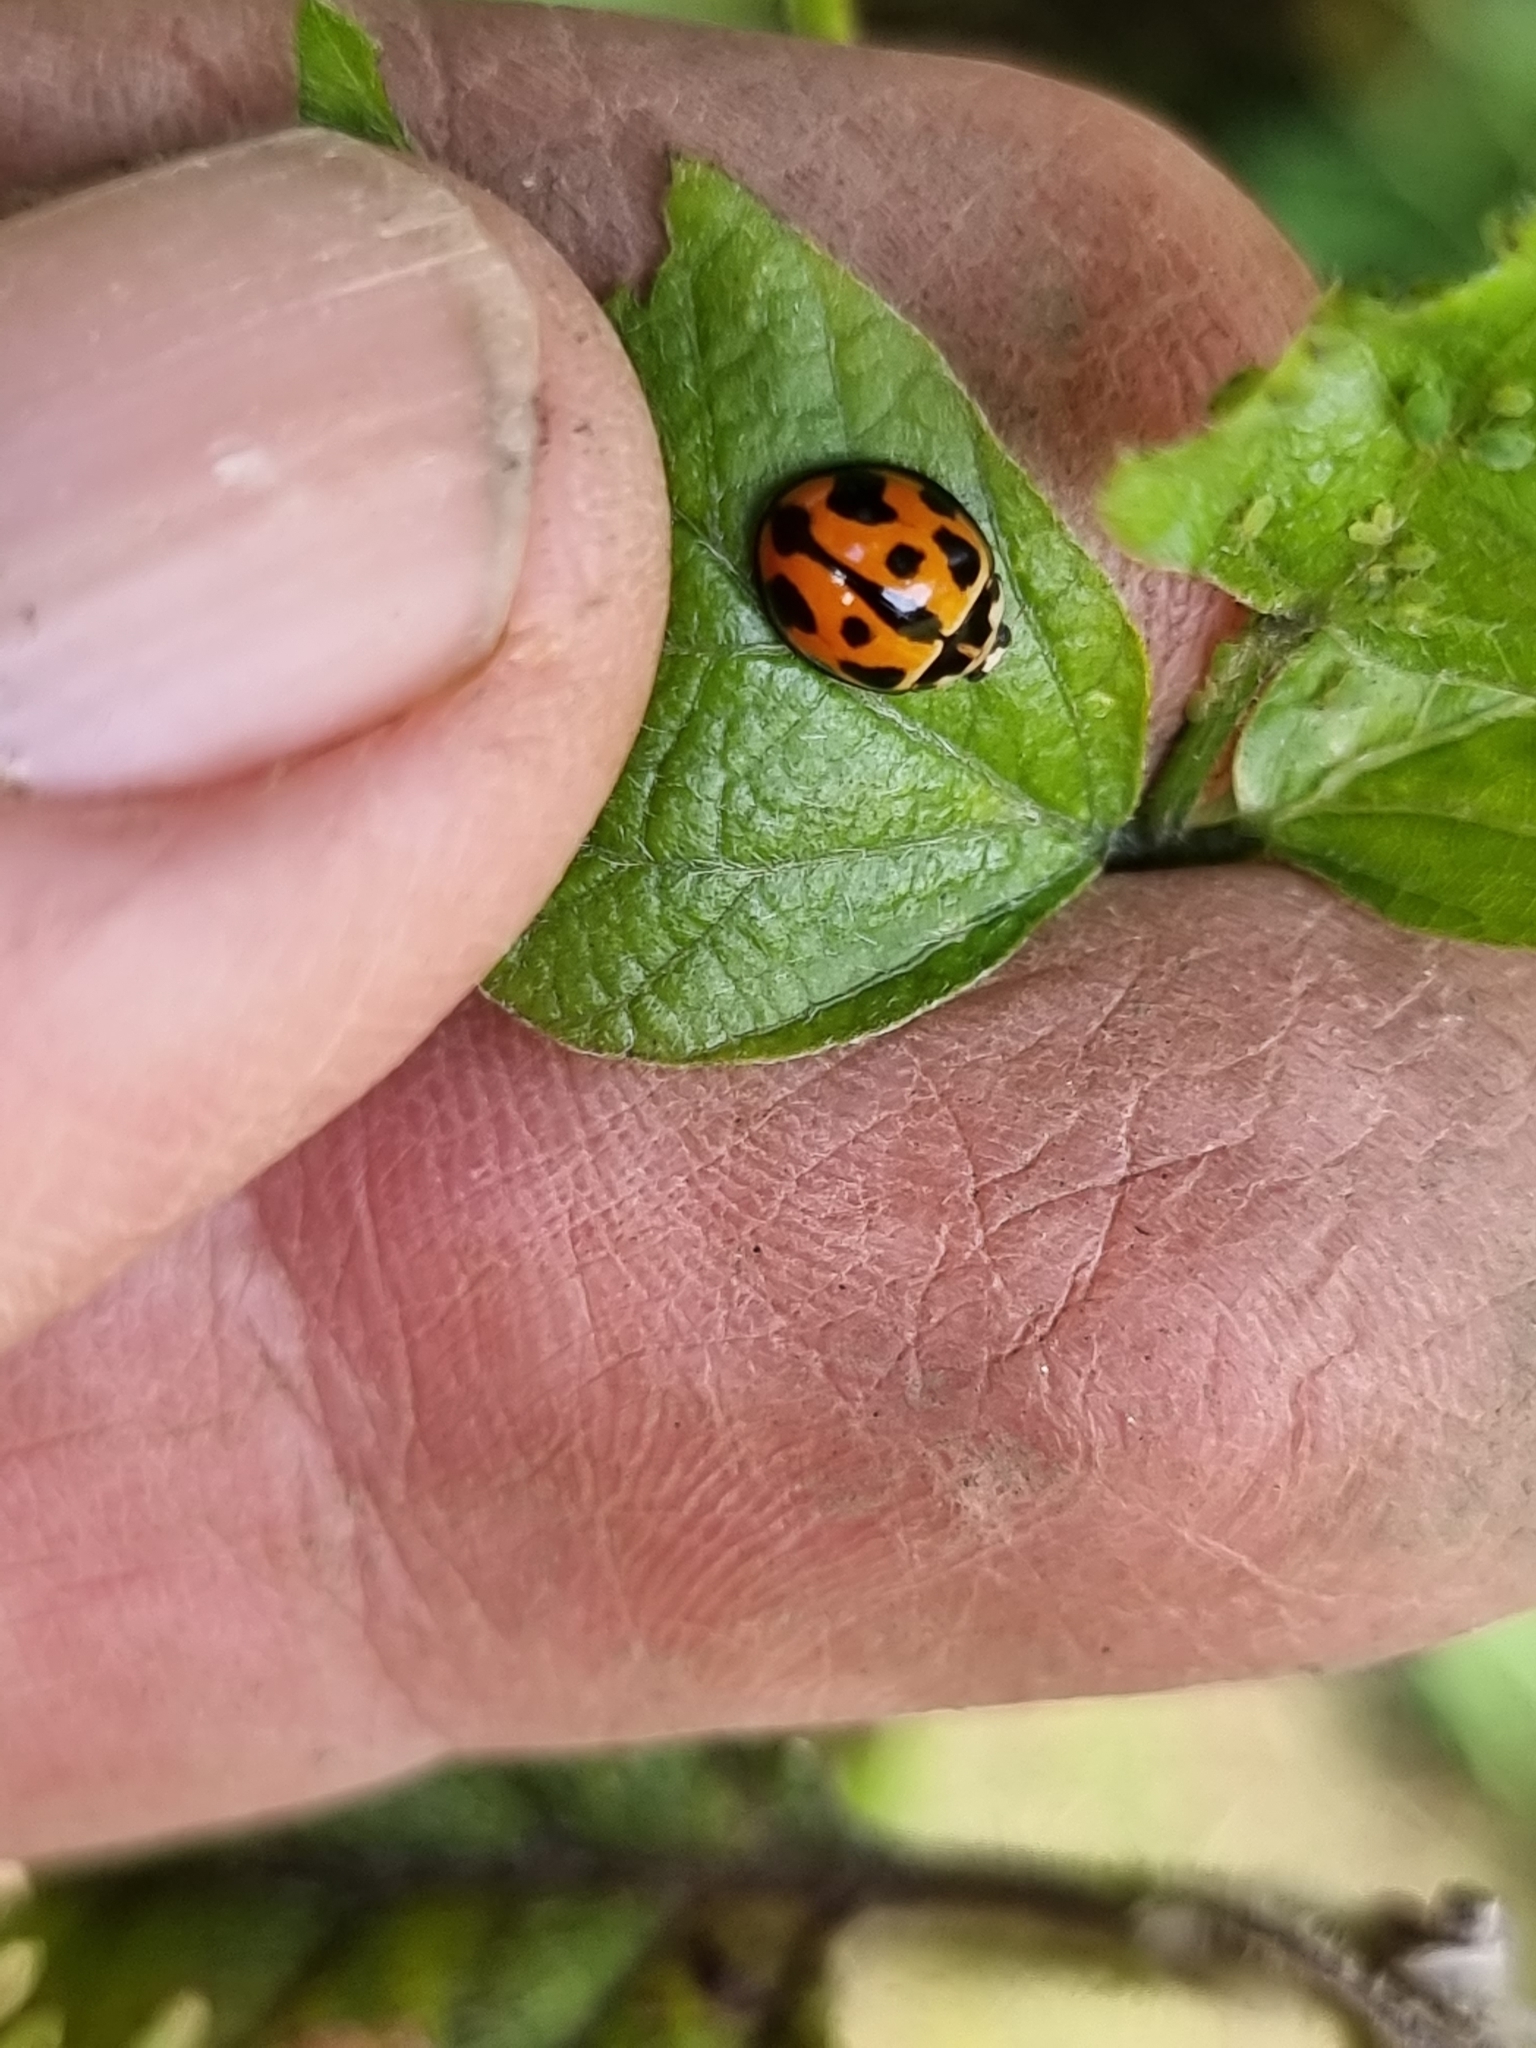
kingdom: Animalia
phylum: Arthropoda
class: Insecta
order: Coleoptera
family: Coccinellidae
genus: Coelophora
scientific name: Coelophora inaequalis
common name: Common australian lady beetle
